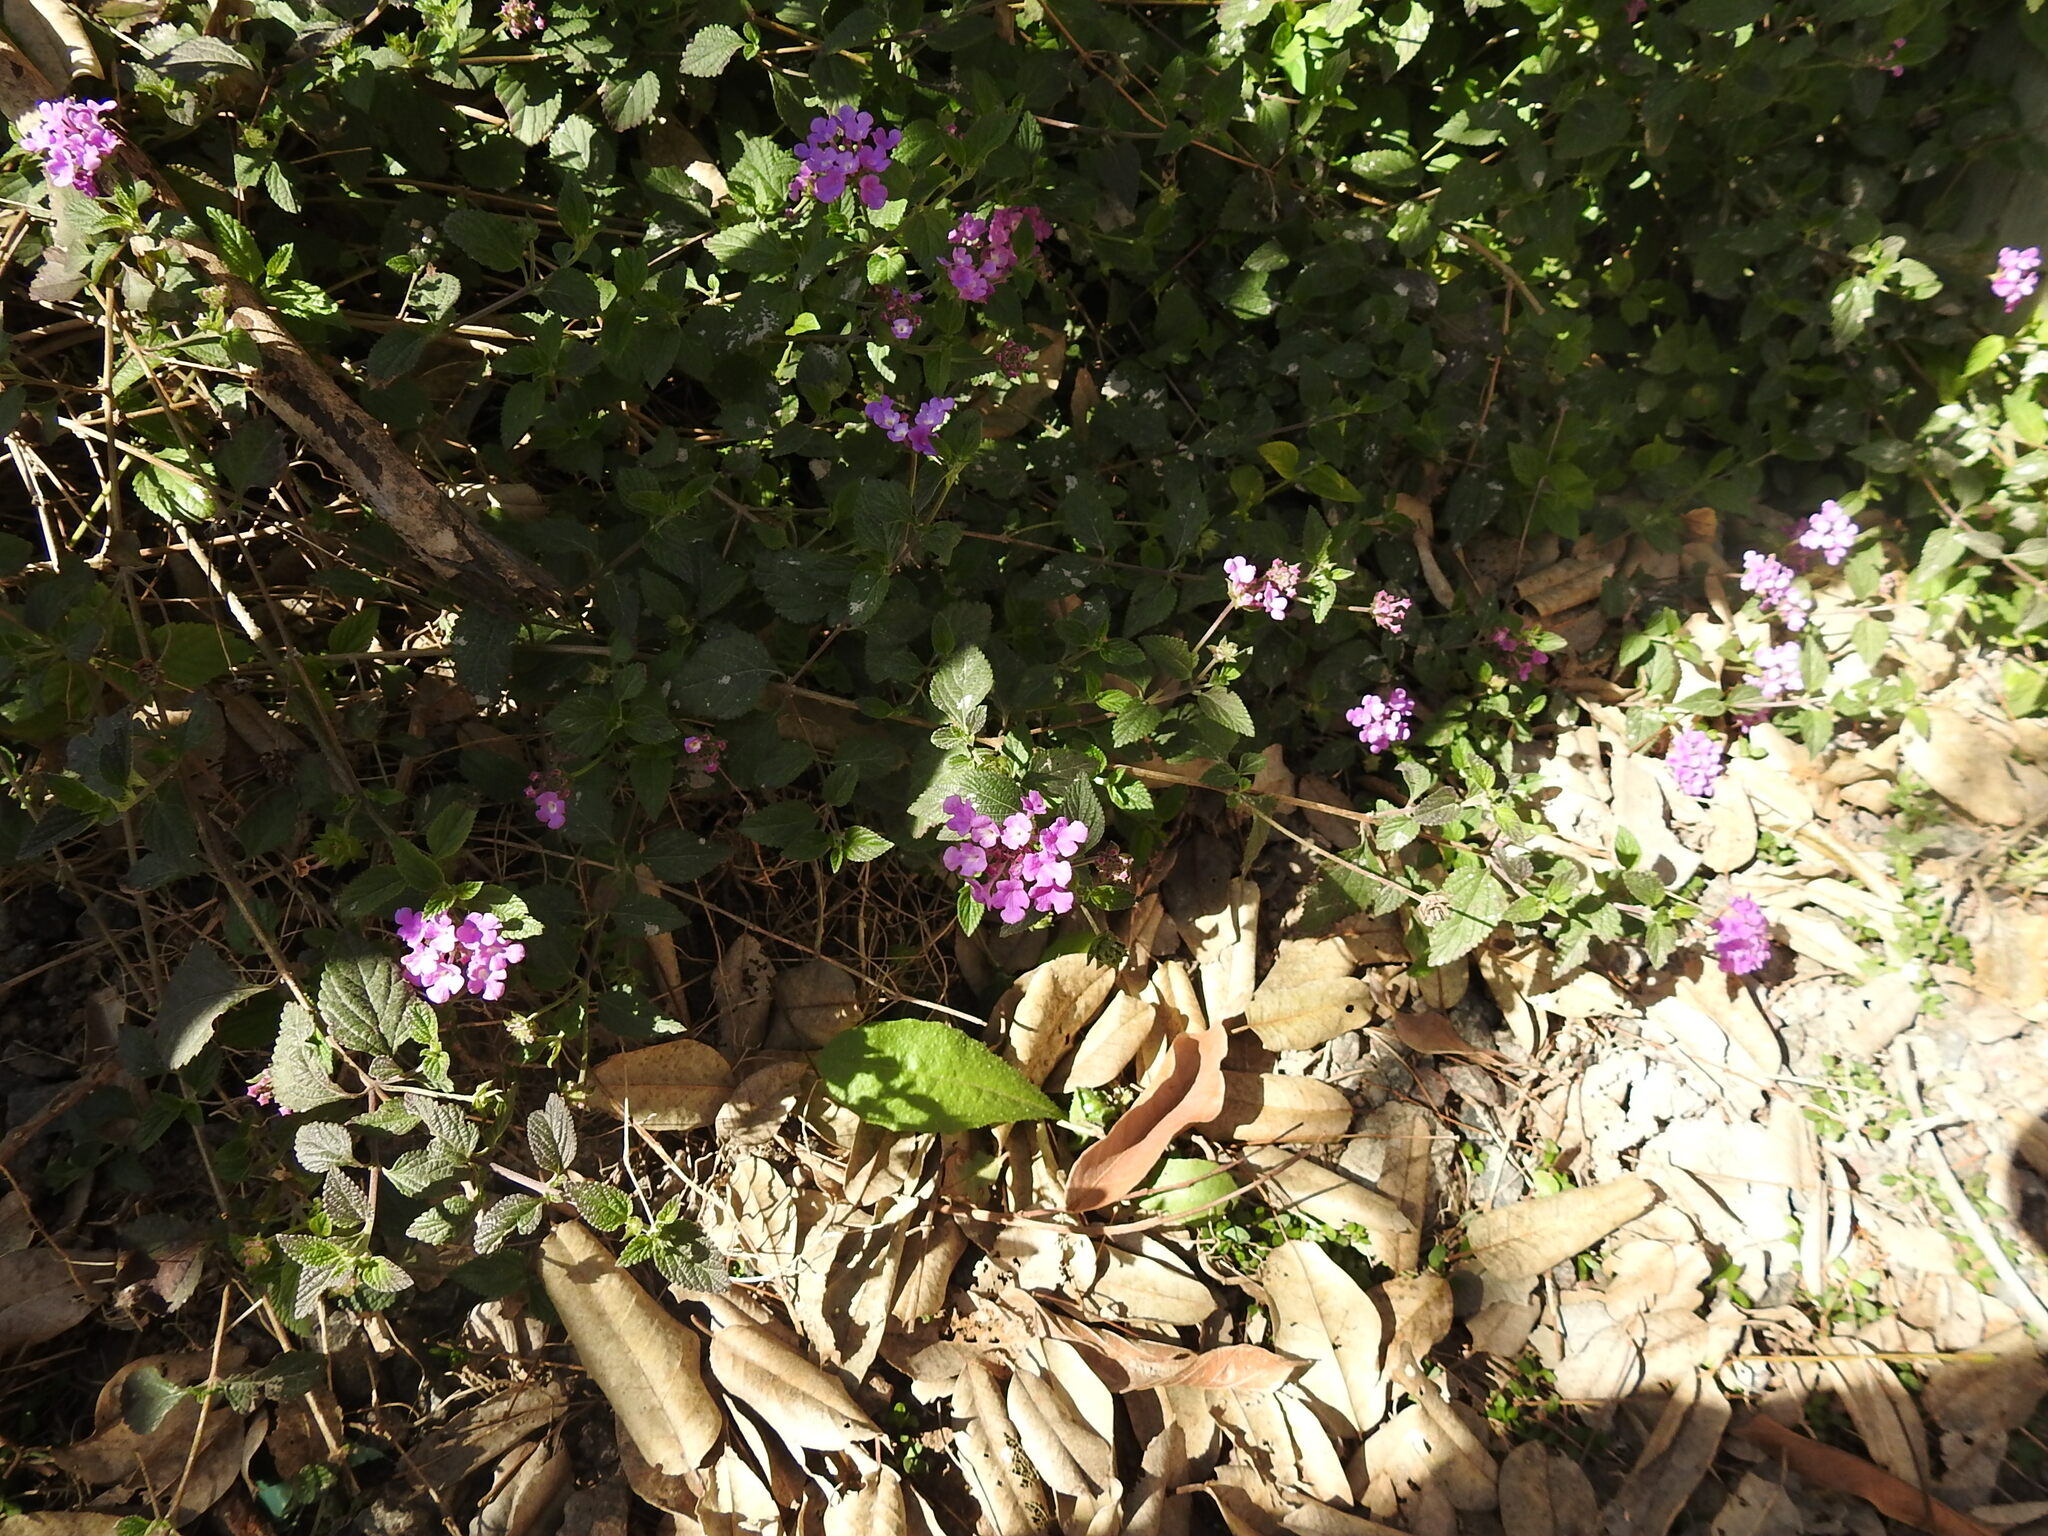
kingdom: Plantae
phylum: Tracheophyta
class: Magnoliopsida
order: Lamiales
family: Verbenaceae
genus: Lantana
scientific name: Lantana montevidensis
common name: Trailing shrubverbena
